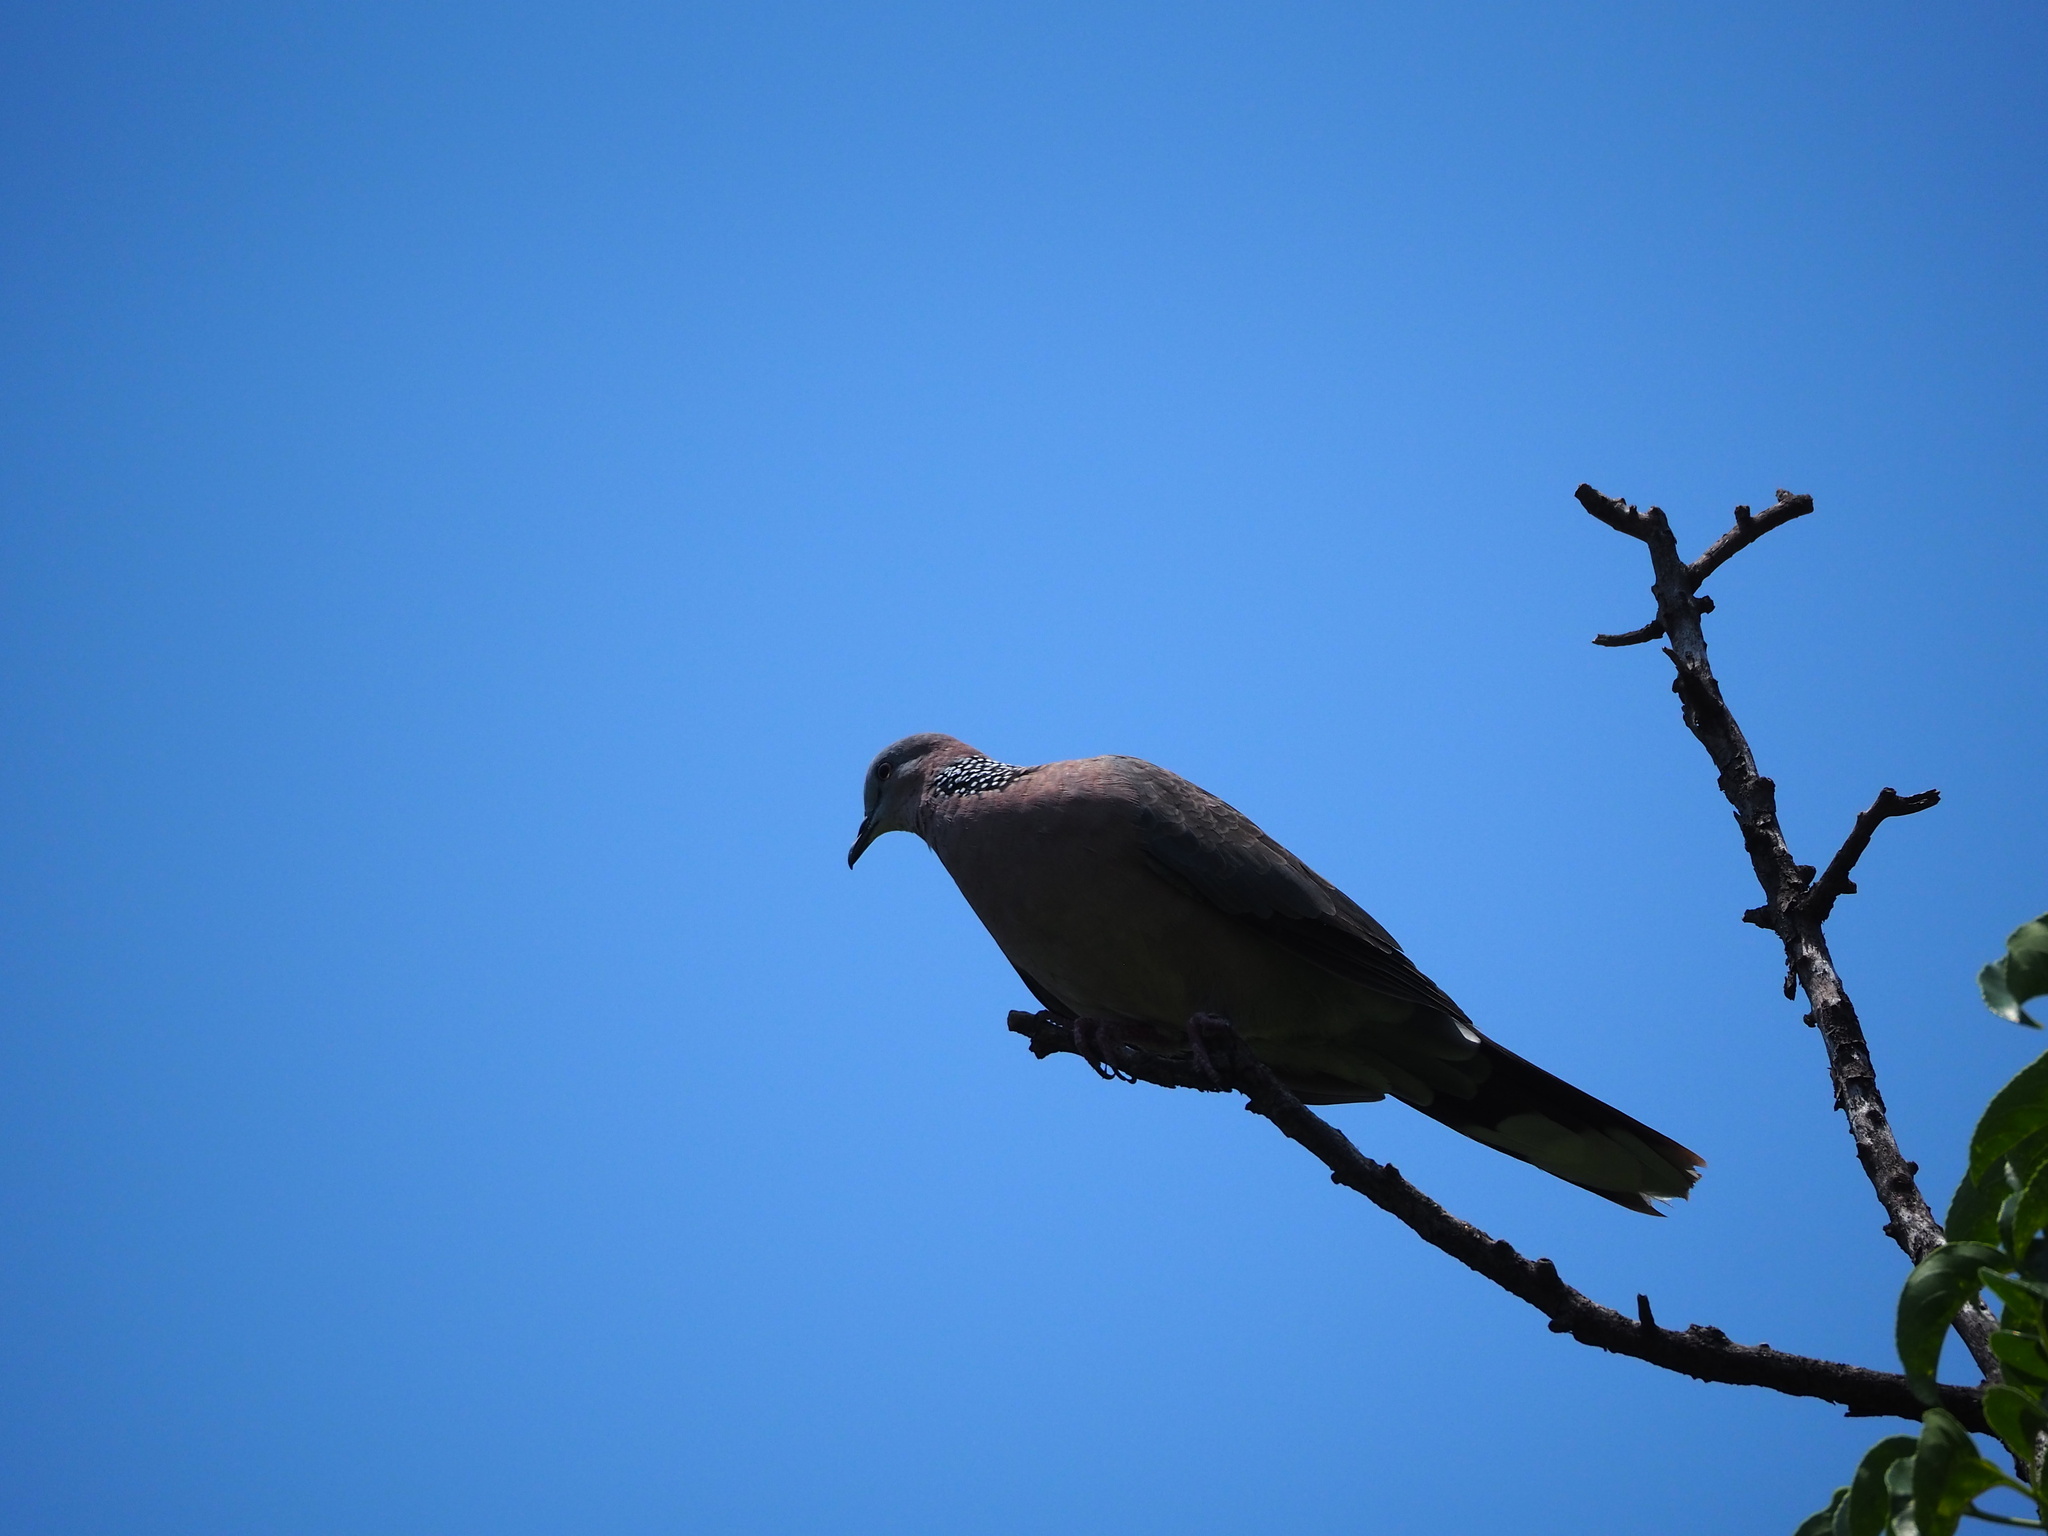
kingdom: Animalia
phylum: Chordata
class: Aves
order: Columbiformes
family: Columbidae
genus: Spilopelia
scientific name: Spilopelia chinensis
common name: Spotted dove
